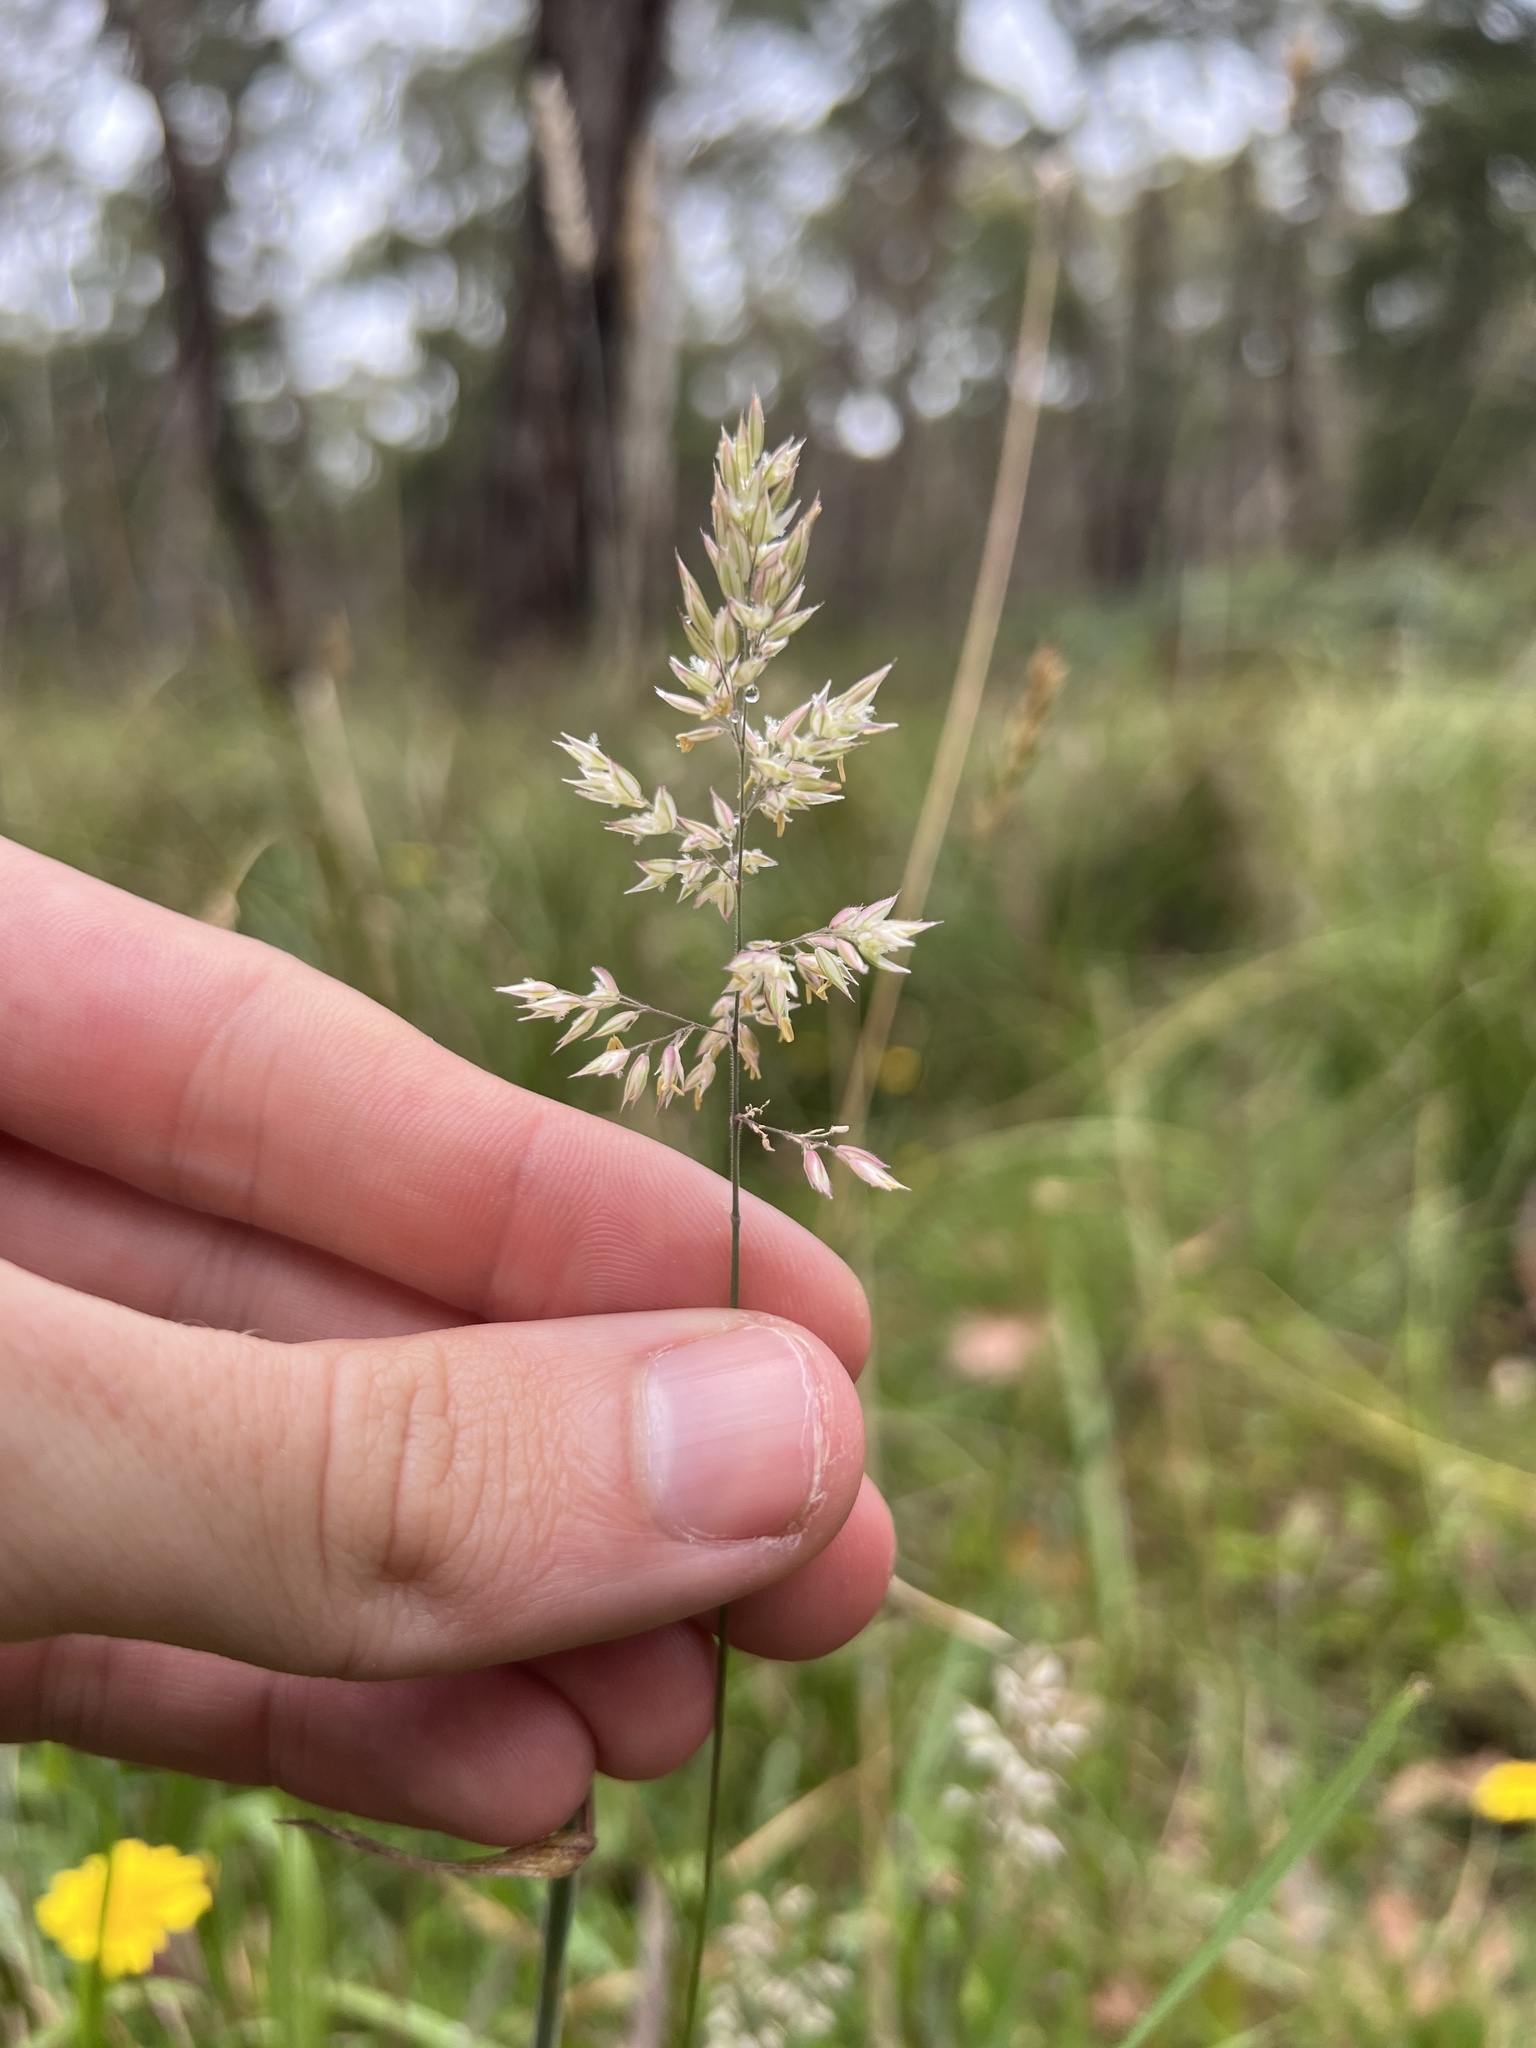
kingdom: Plantae
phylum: Tracheophyta
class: Liliopsida
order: Poales
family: Poaceae
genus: Holcus
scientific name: Holcus lanatus
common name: Yorkshire-fog
